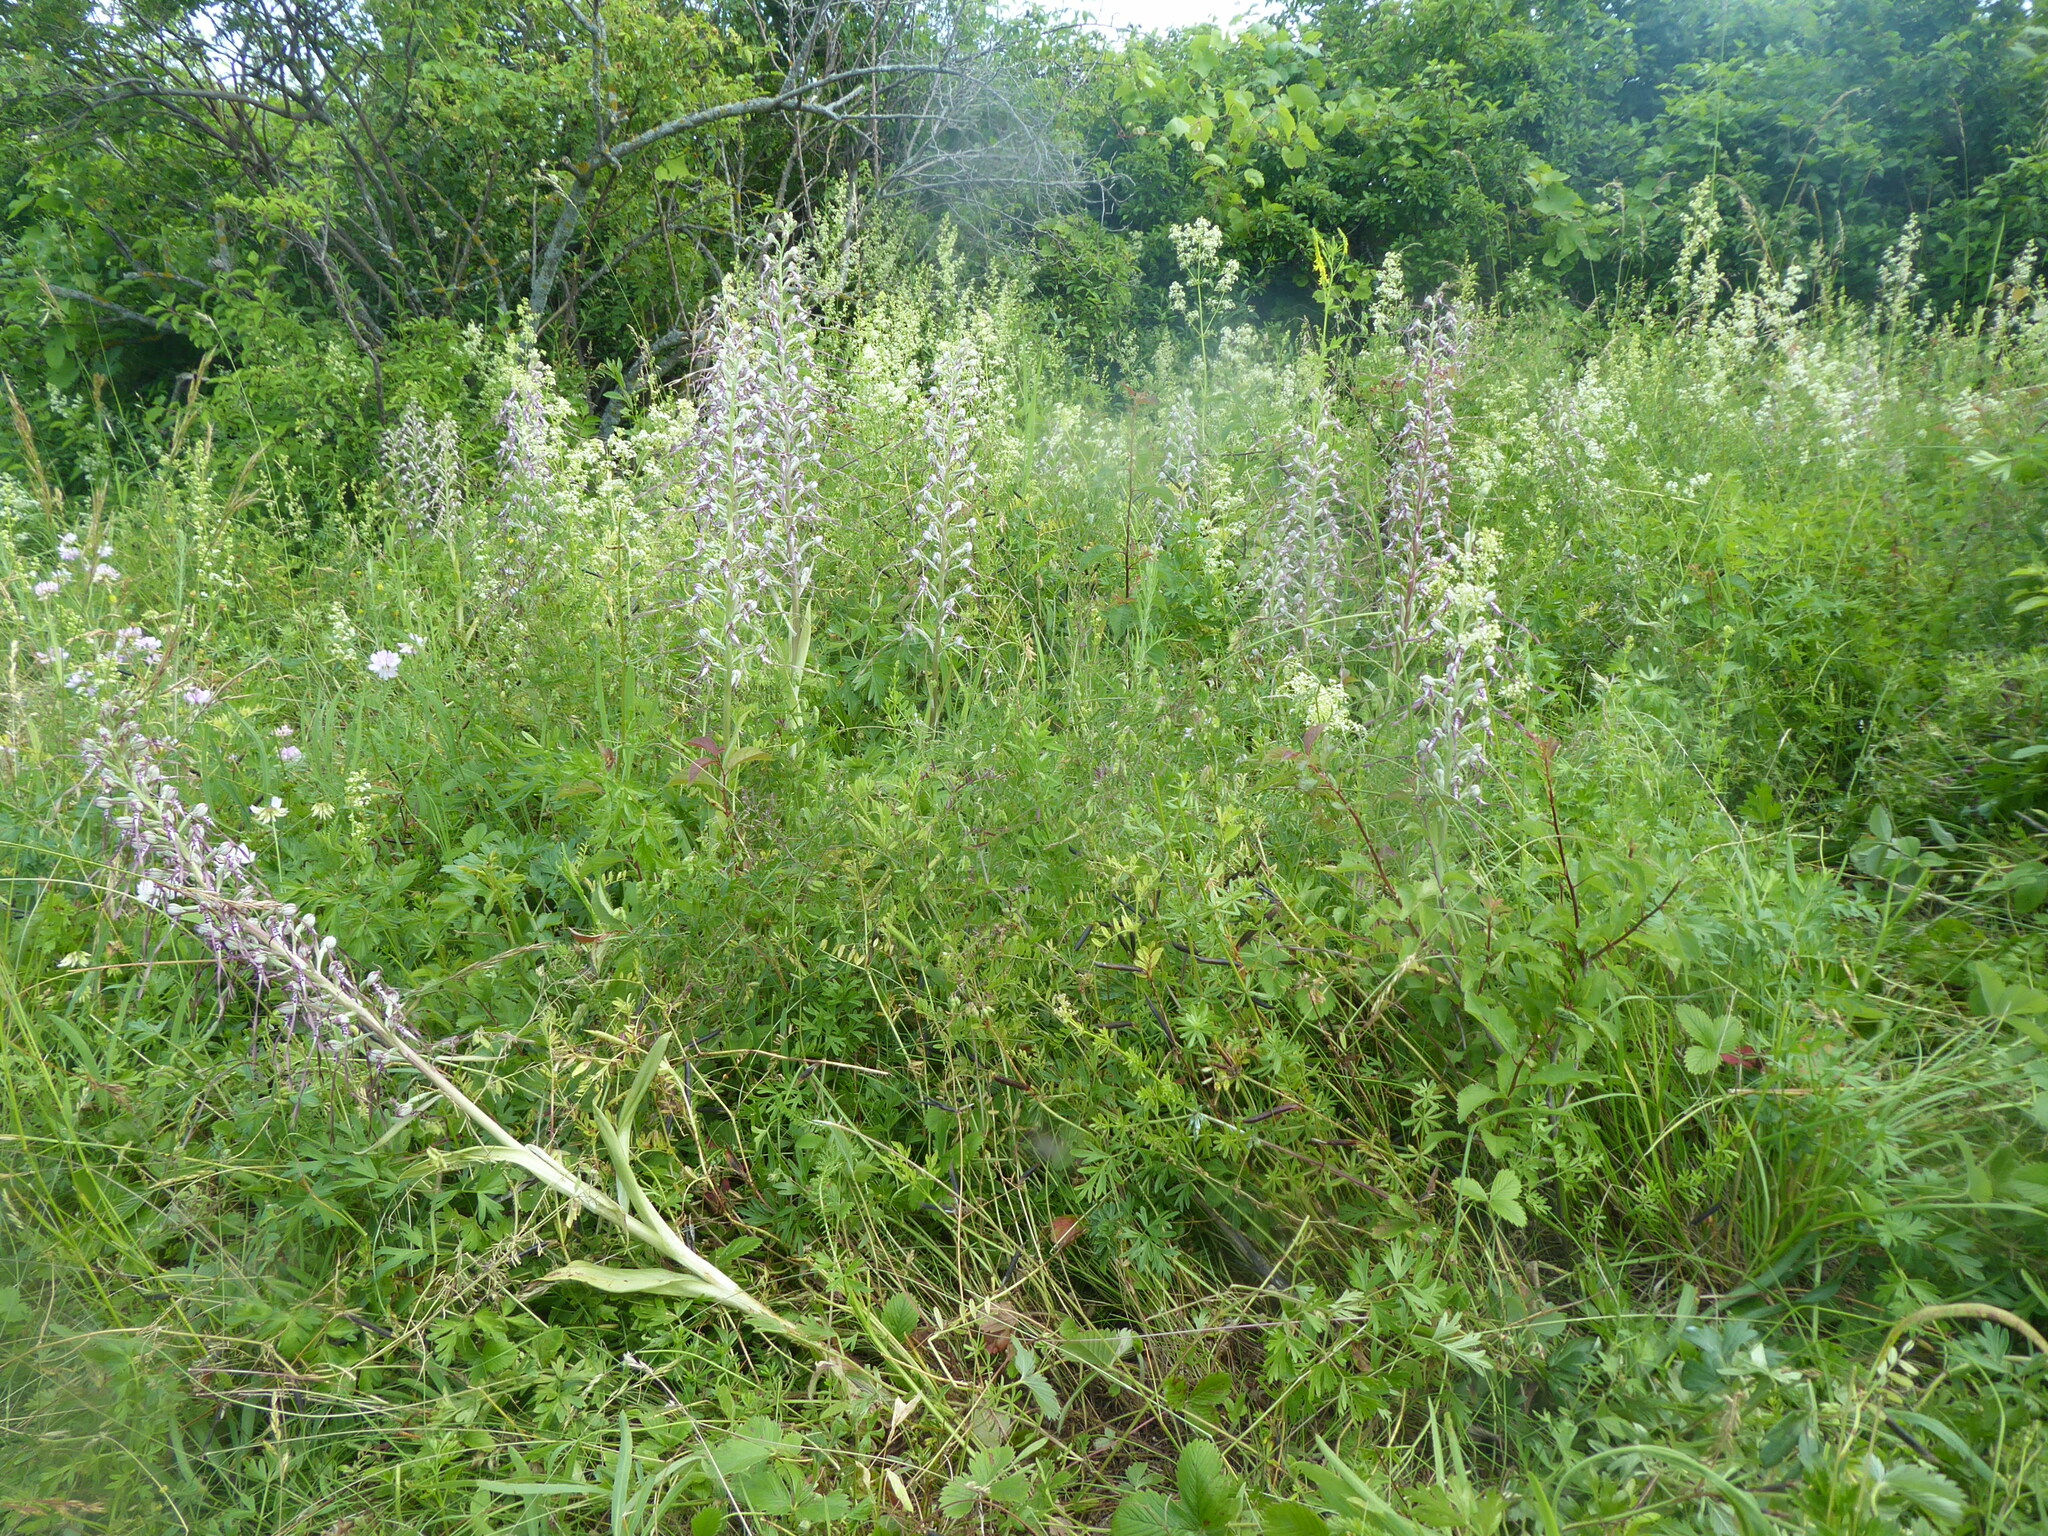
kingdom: Plantae
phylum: Tracheophyta
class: Liliopsida
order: Asparagales
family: Orchidaceae
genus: Himantoglossum
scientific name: Himantoglossum adriaticum
